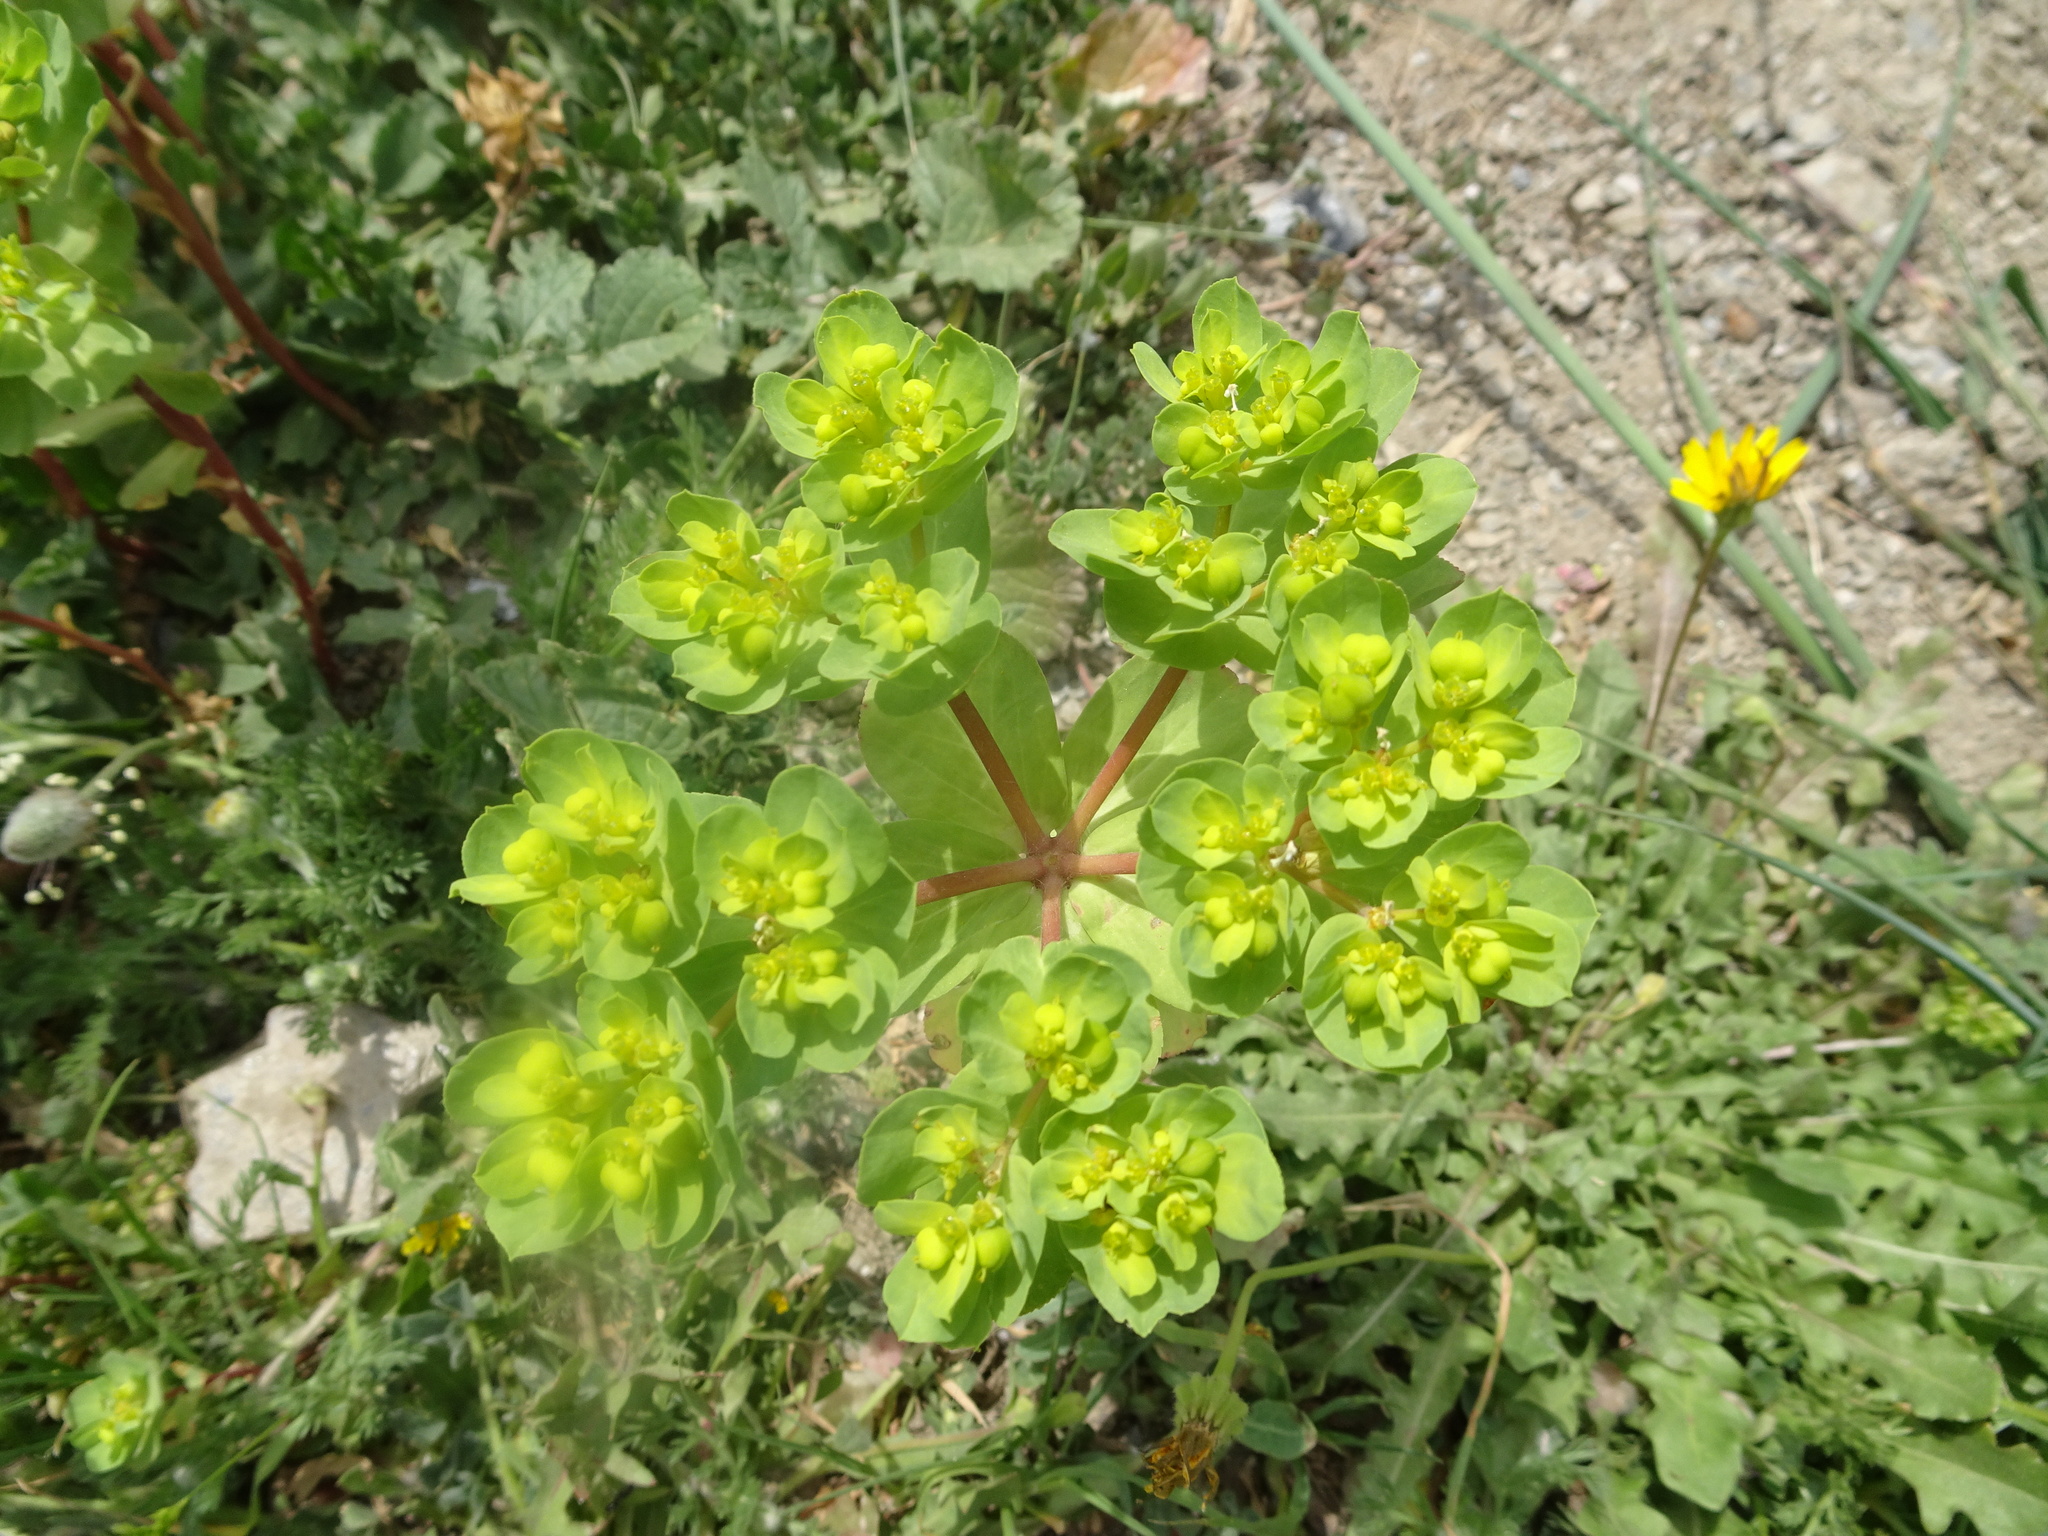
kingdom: Plantae
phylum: Tracheophyta
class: Magnoliopsida
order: Malpighiales
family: Euphorbiaceae
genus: Euphorbia
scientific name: Euphorbia helioscopia
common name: Sun spurge
